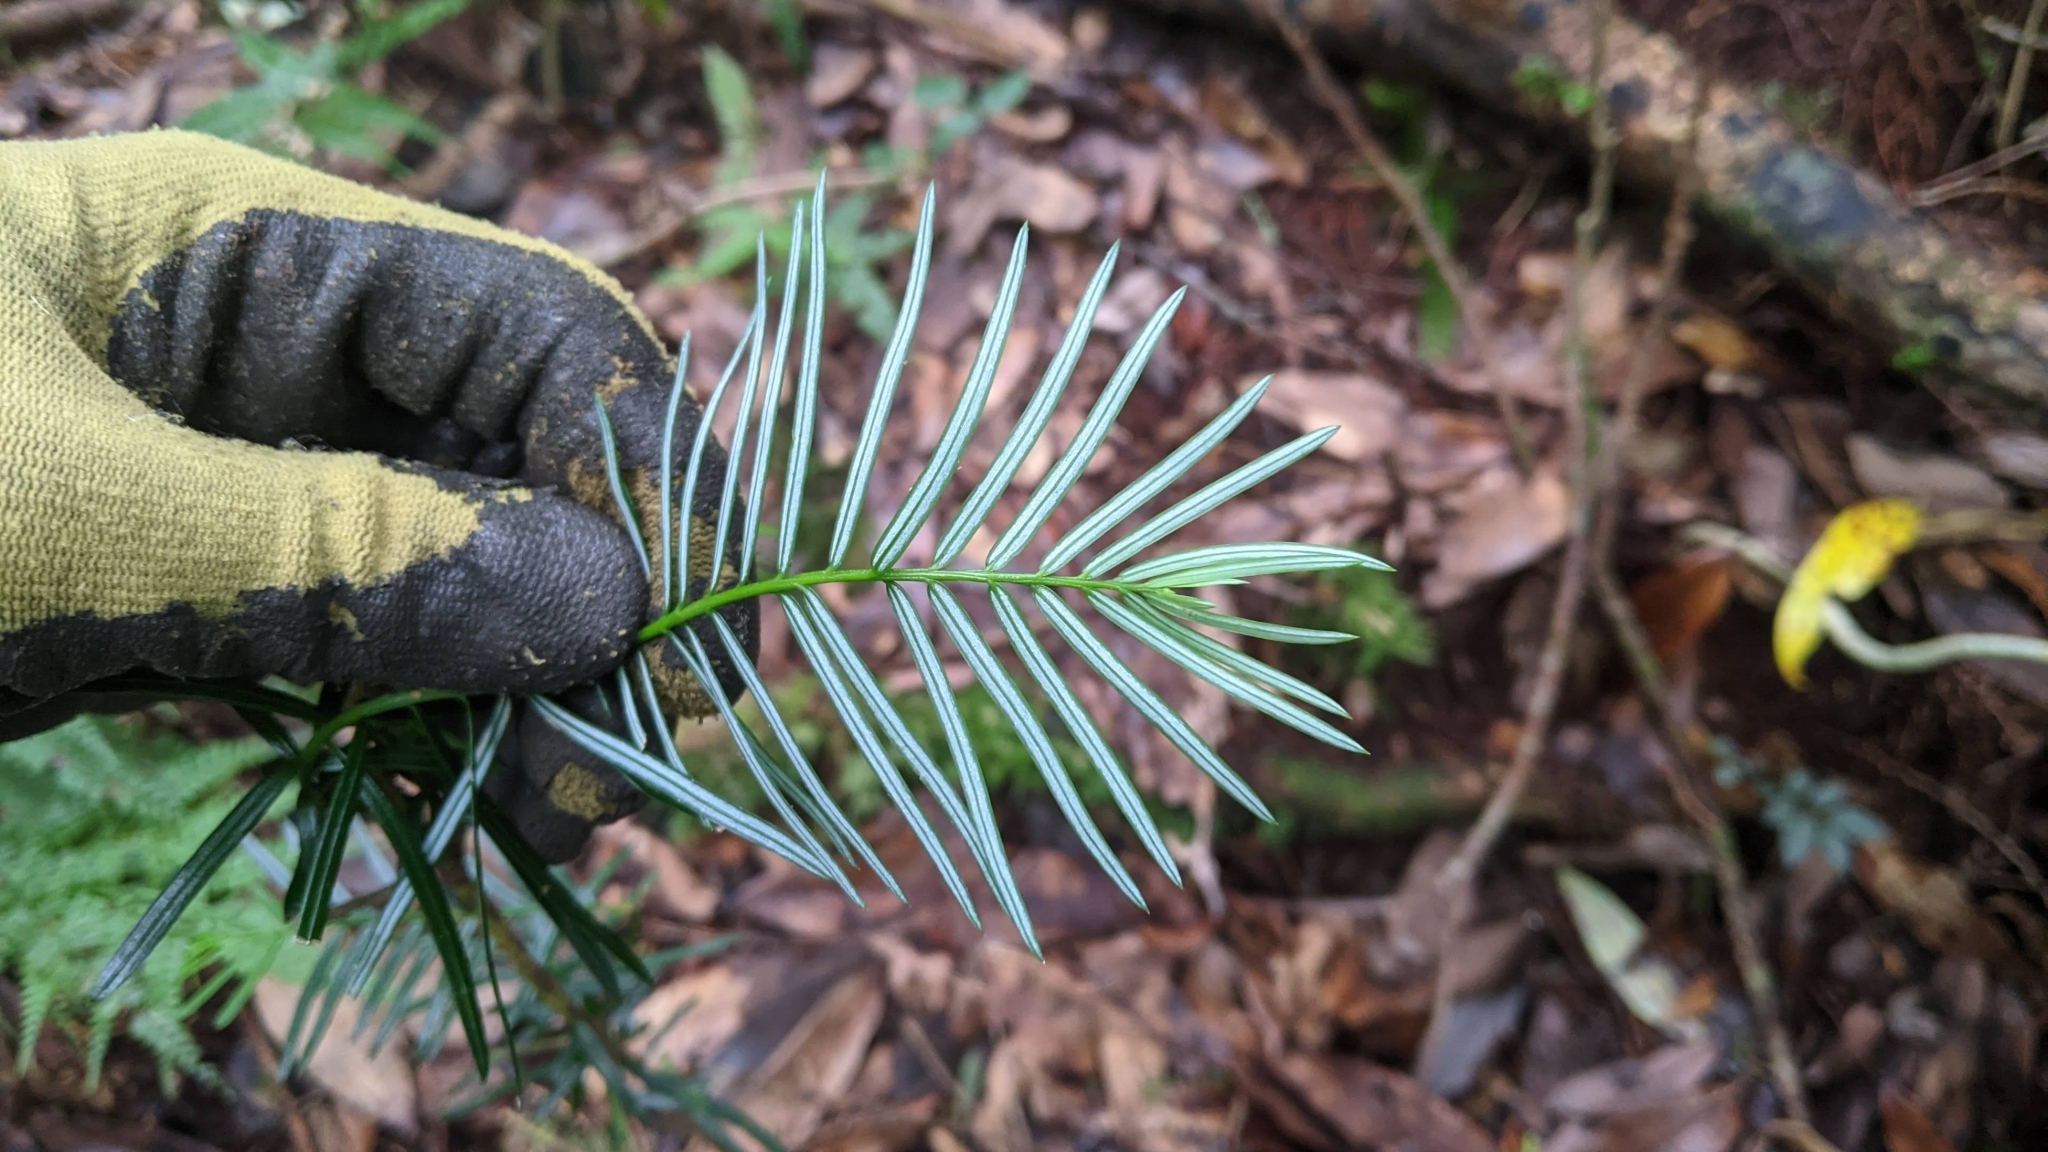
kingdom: Plantae
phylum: Tracheophyta
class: Pinopsida
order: Pinales
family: Cephalotaxaceae
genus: Cephalotaxus
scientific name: Cephalotaxus harringtonii
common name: Harrington's plum yew
